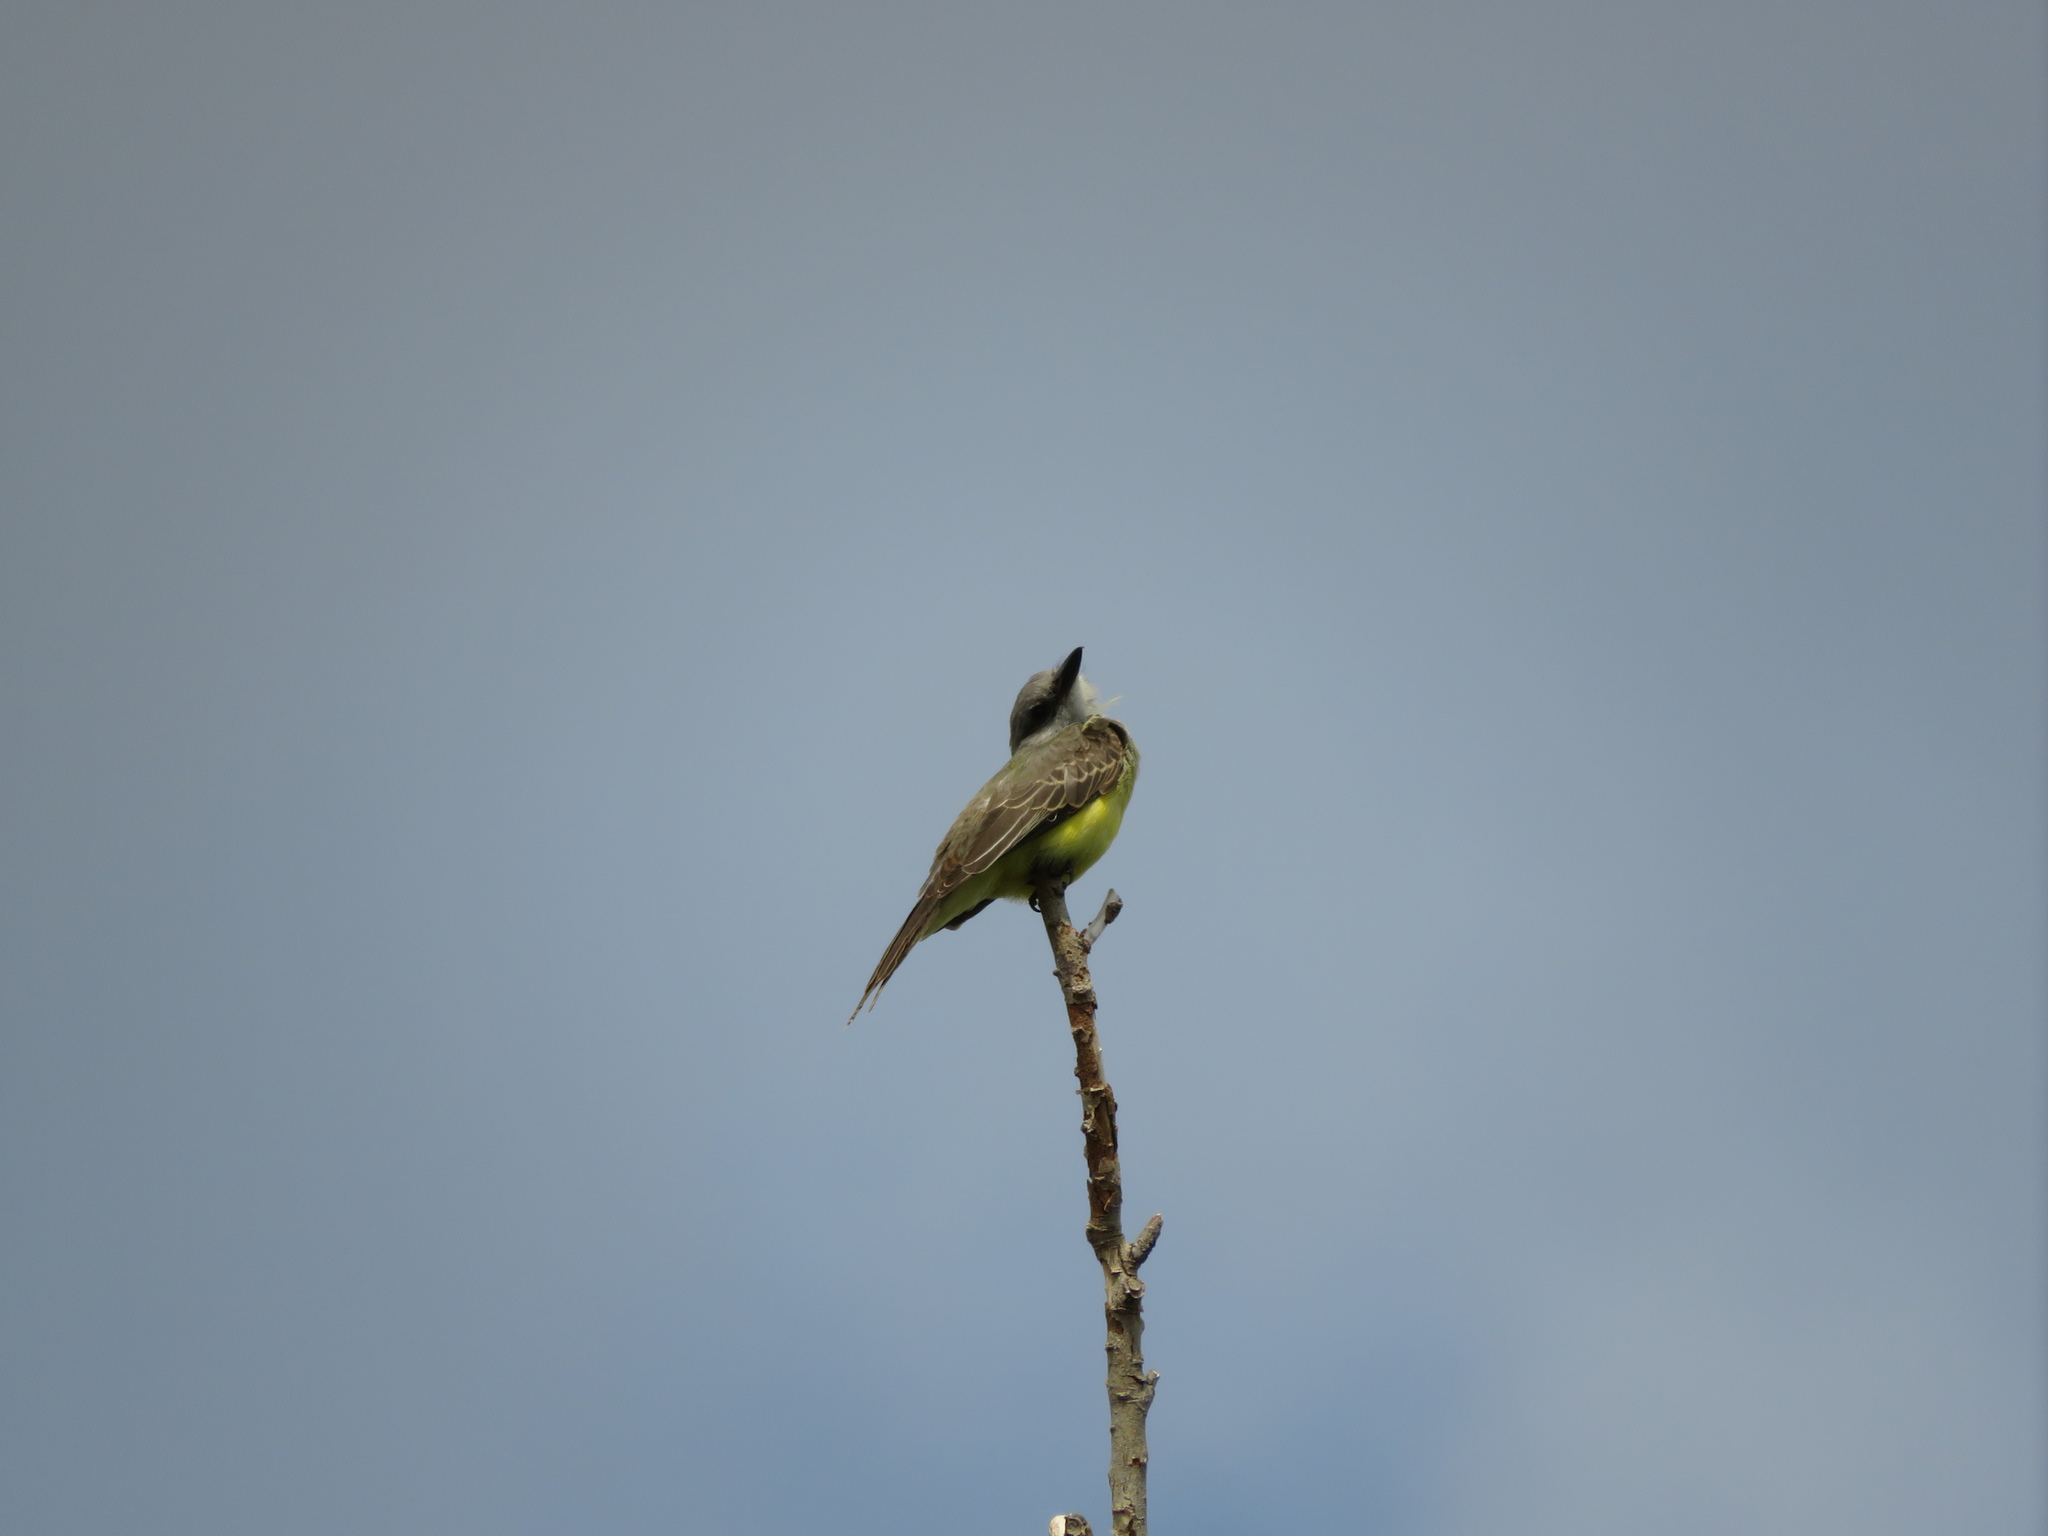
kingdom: Animalia
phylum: Chordata
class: Aves
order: Passeriformes
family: Tyrannidae
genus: Tyrannus
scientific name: Tyrannus melancholicus
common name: Tropical kingbird
